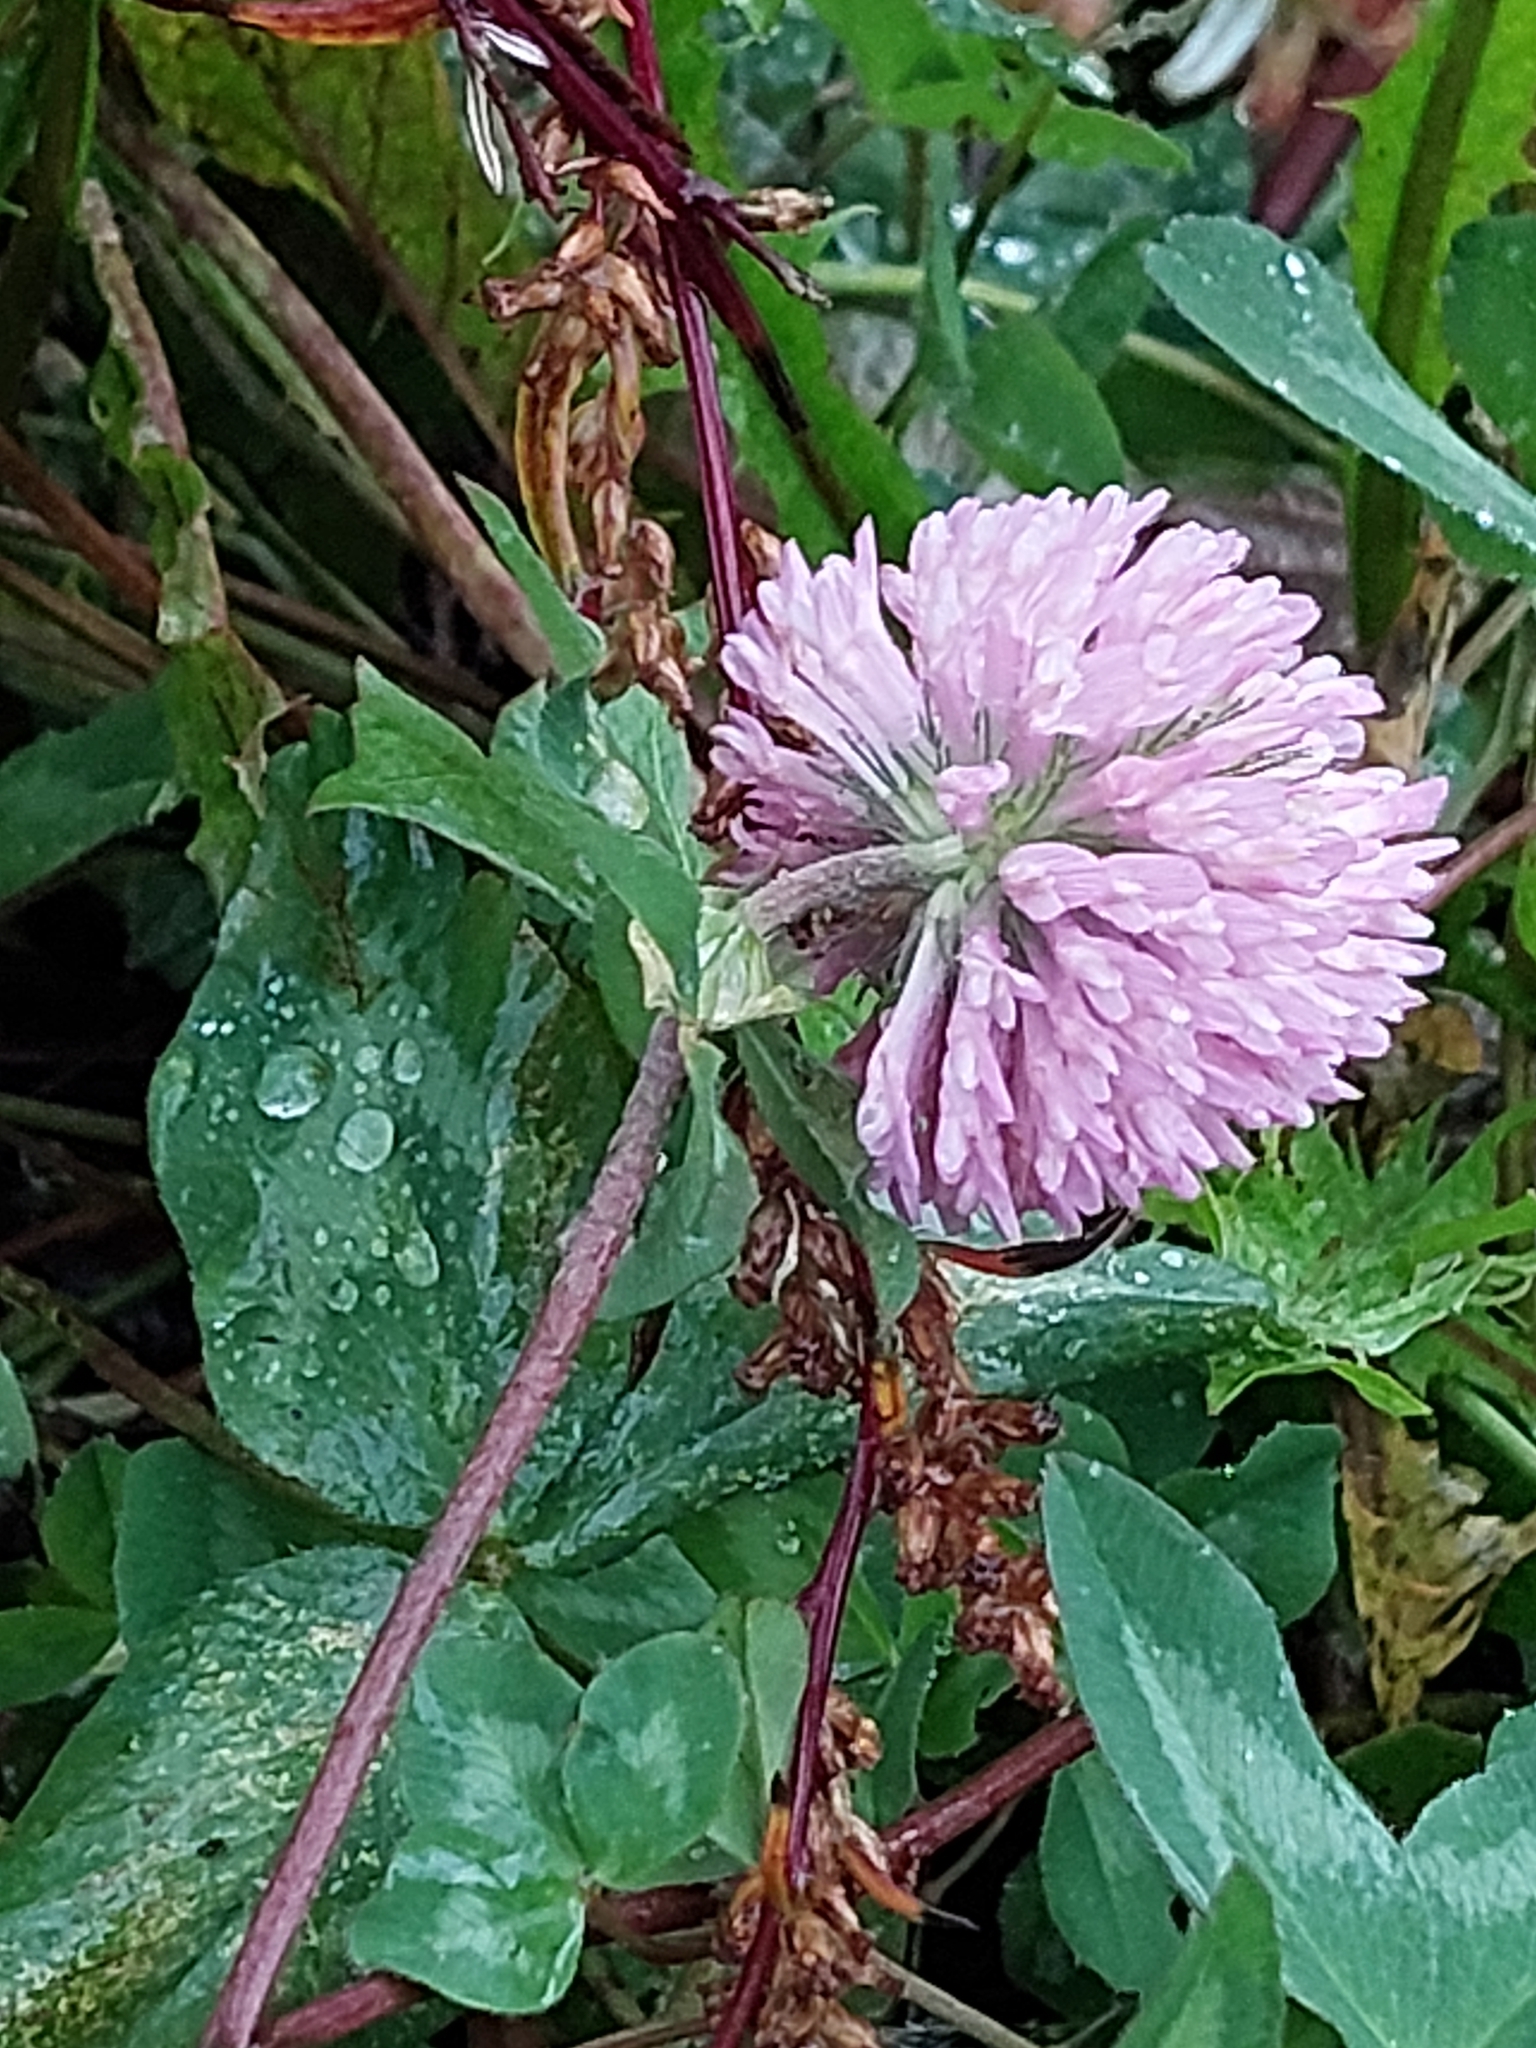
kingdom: Plantae
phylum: Tracheophyta
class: Magnoliopsida
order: Fabales
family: Fabaceae
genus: Trifolium
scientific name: Trifolium pratense
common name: Red clover
